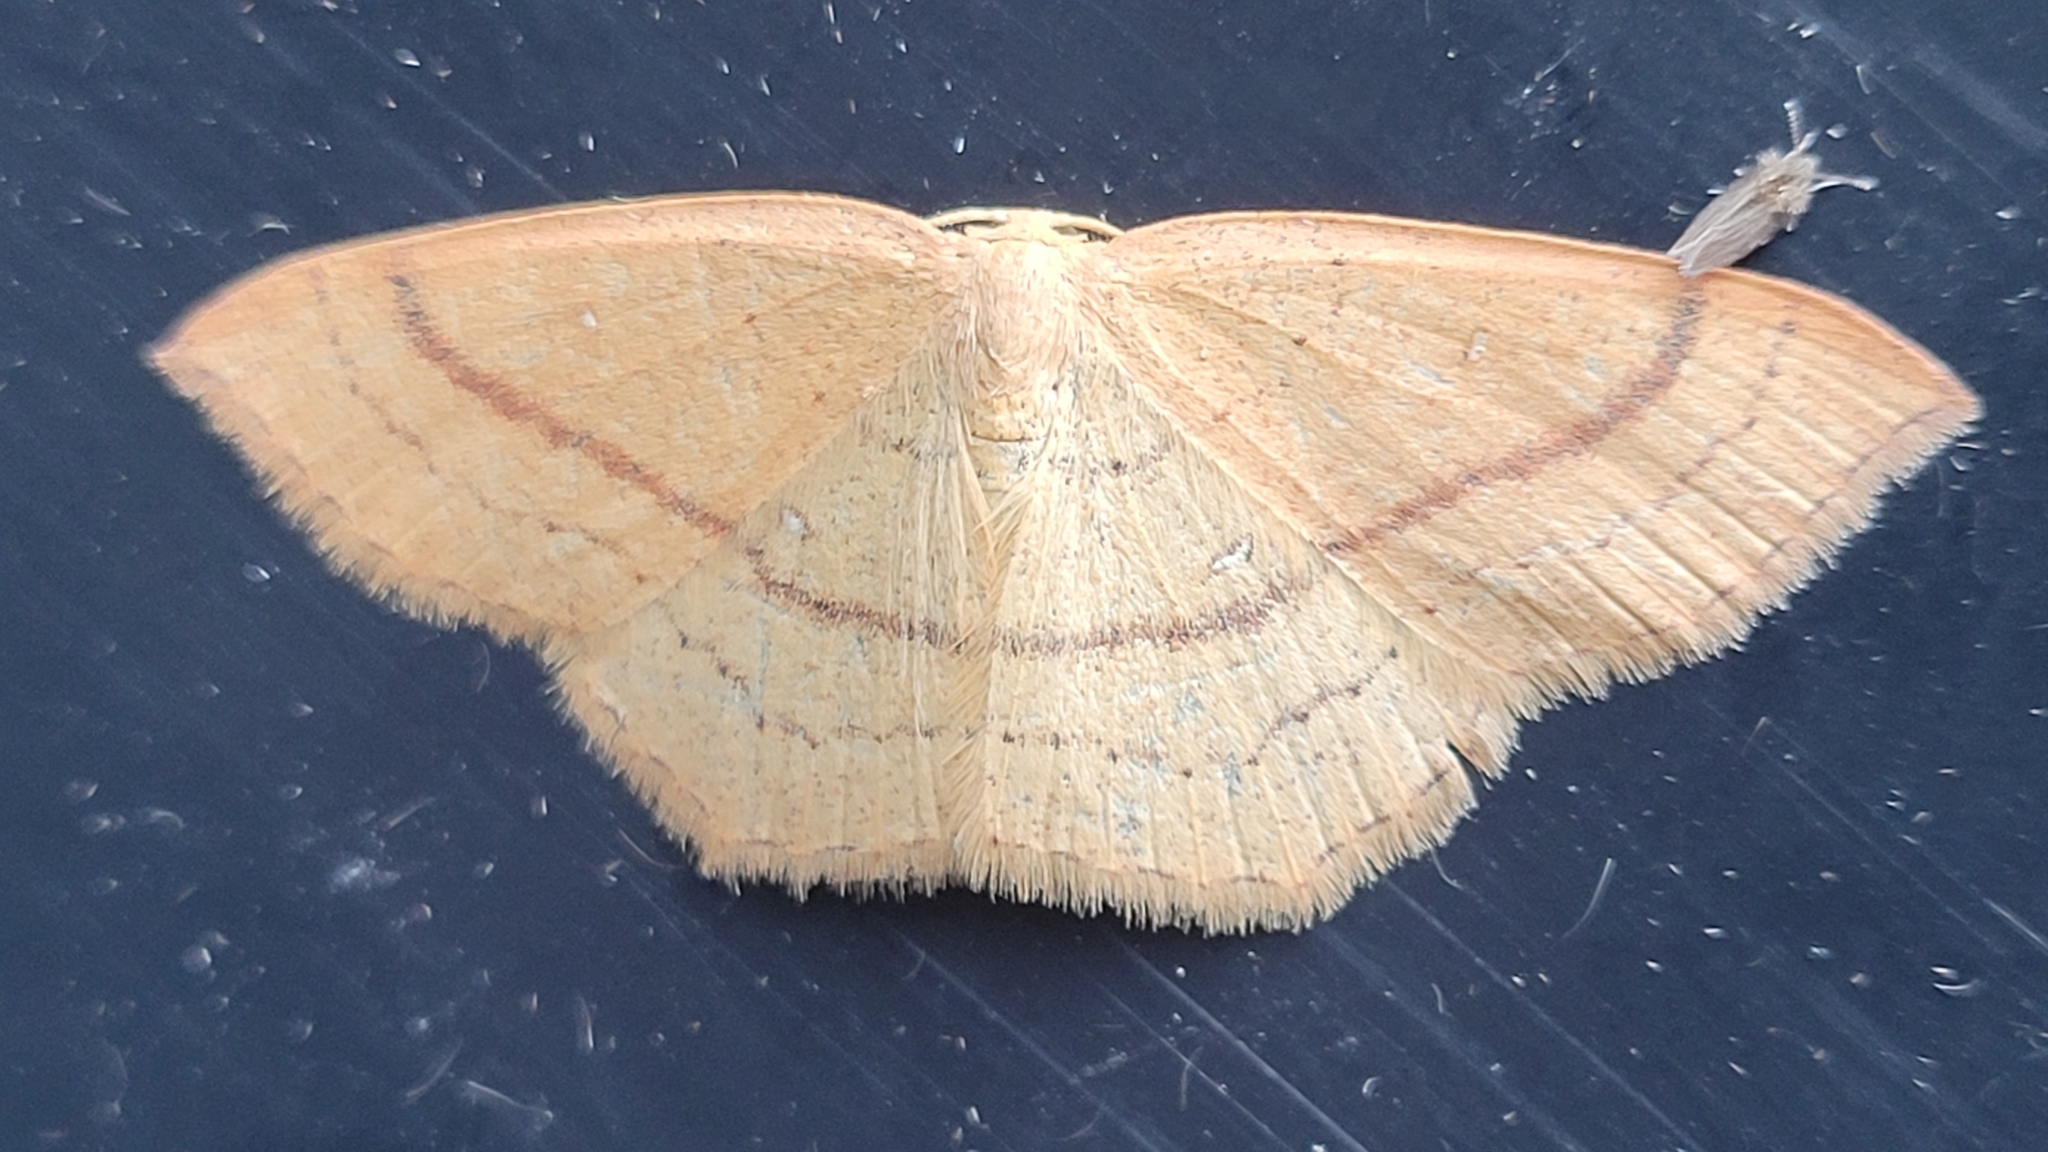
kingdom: Animalia
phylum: Arthropoda
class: Insecta
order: Lepidoptera
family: Geometridae
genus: Cyclophora
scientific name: Cyclophora linearia
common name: Clay triple-lines
